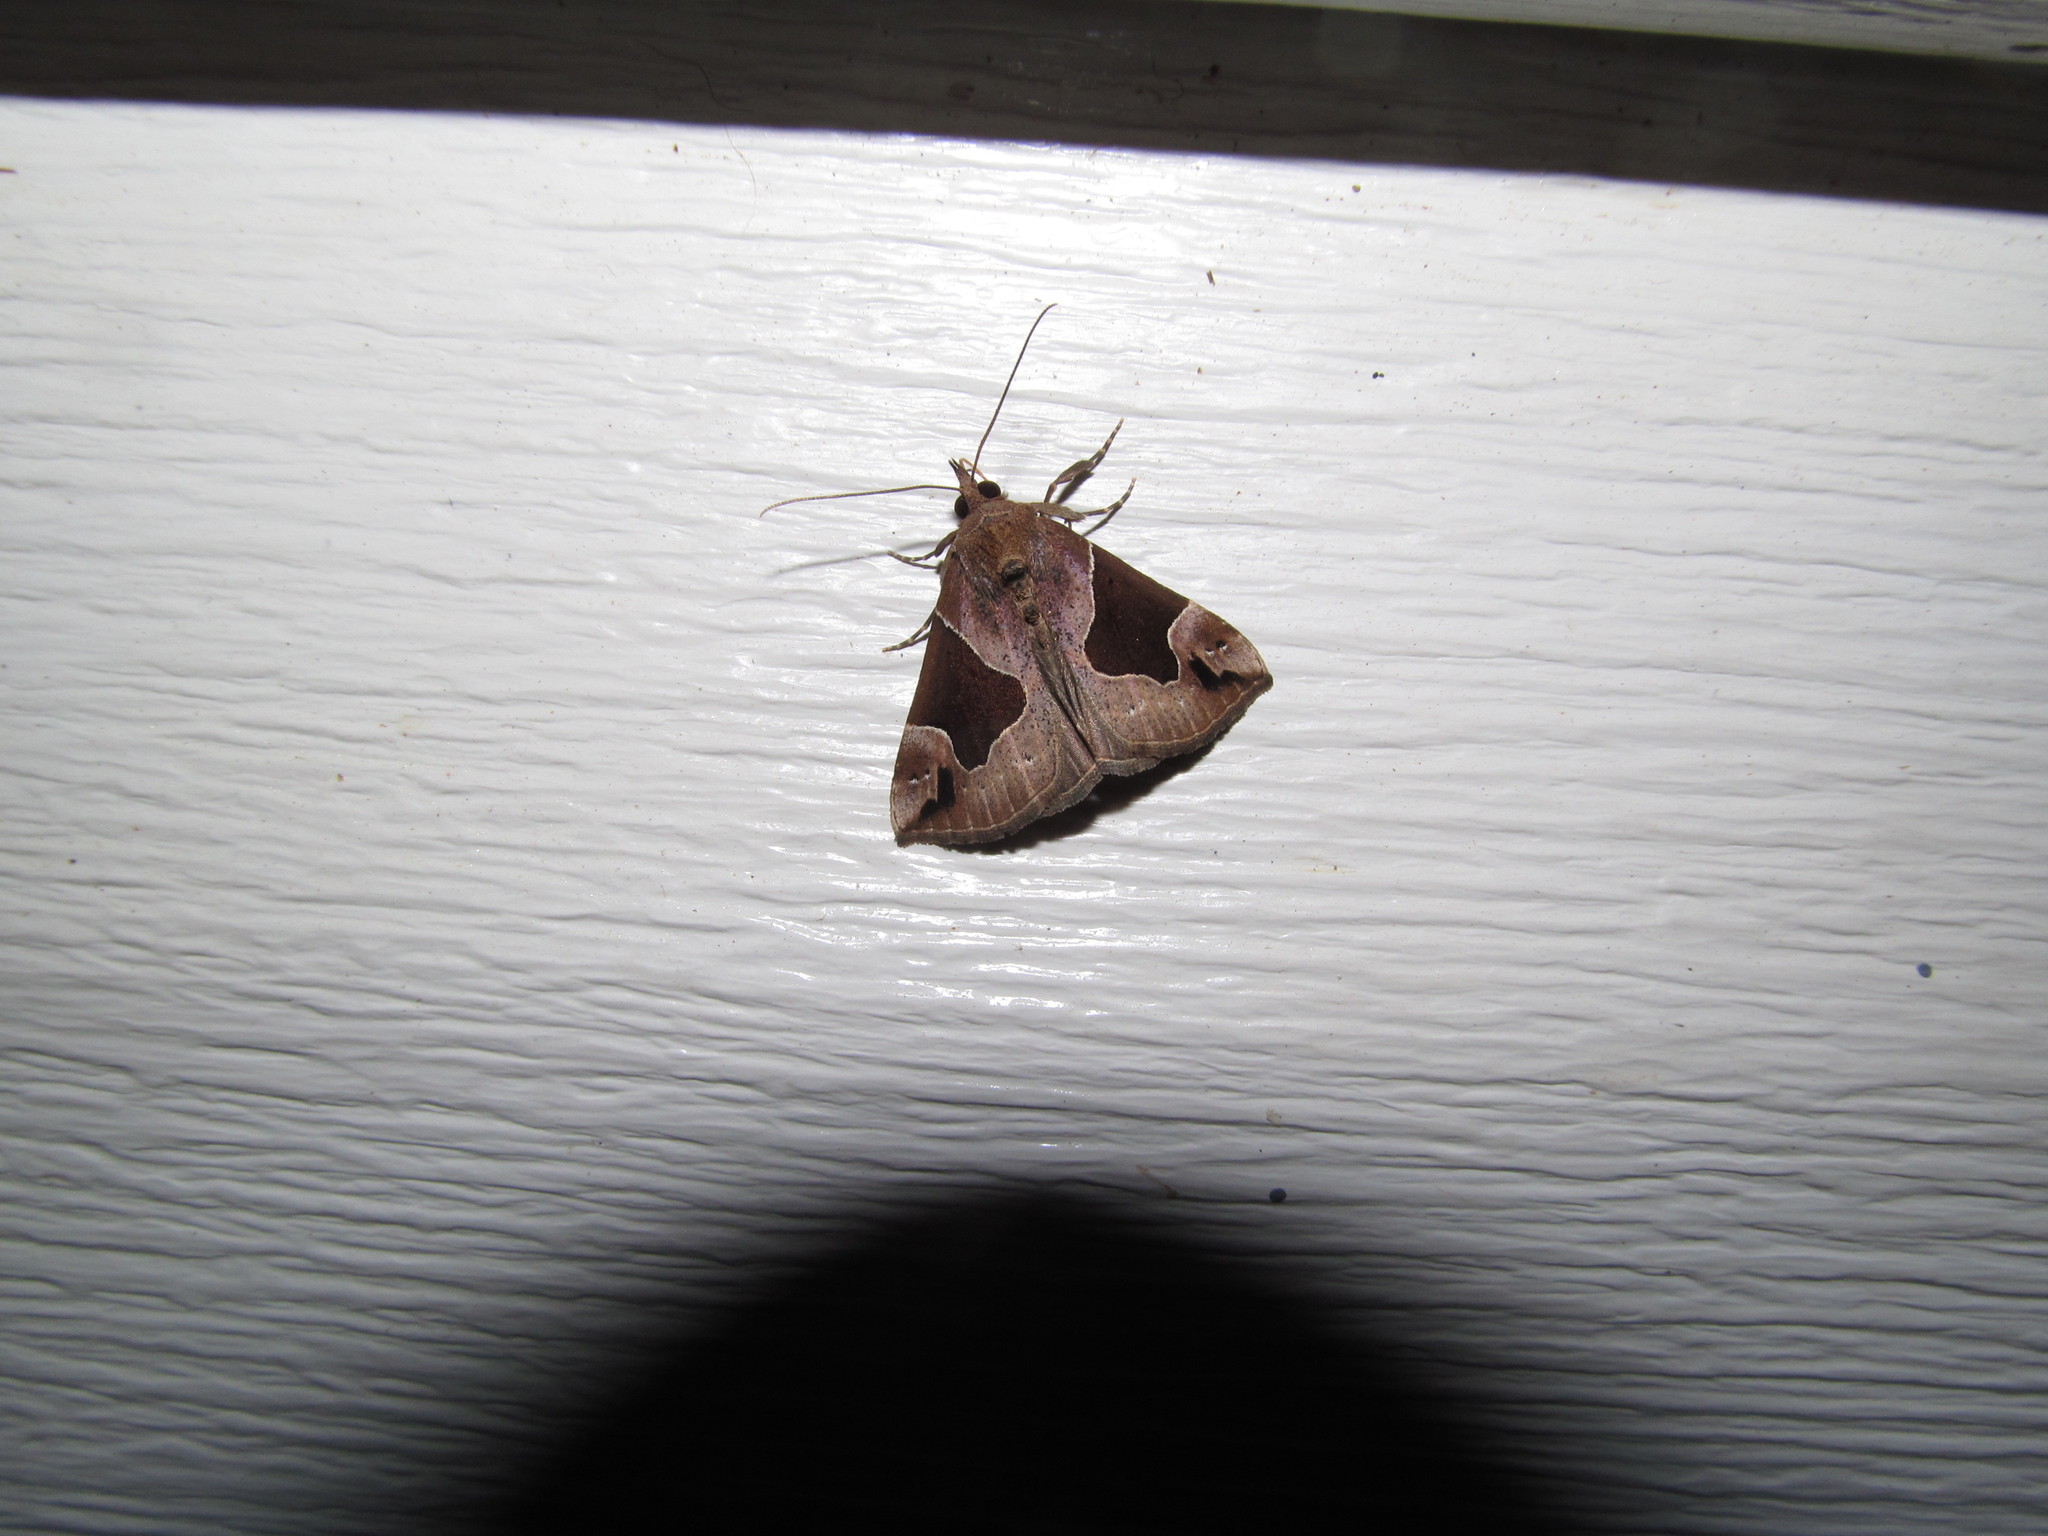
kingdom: Animalia
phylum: Arthropoda
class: Insecta
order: Lepidoptera
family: Erebidae
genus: Hypena
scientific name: Hypena manalis
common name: Flowing-line bomolocha moth
